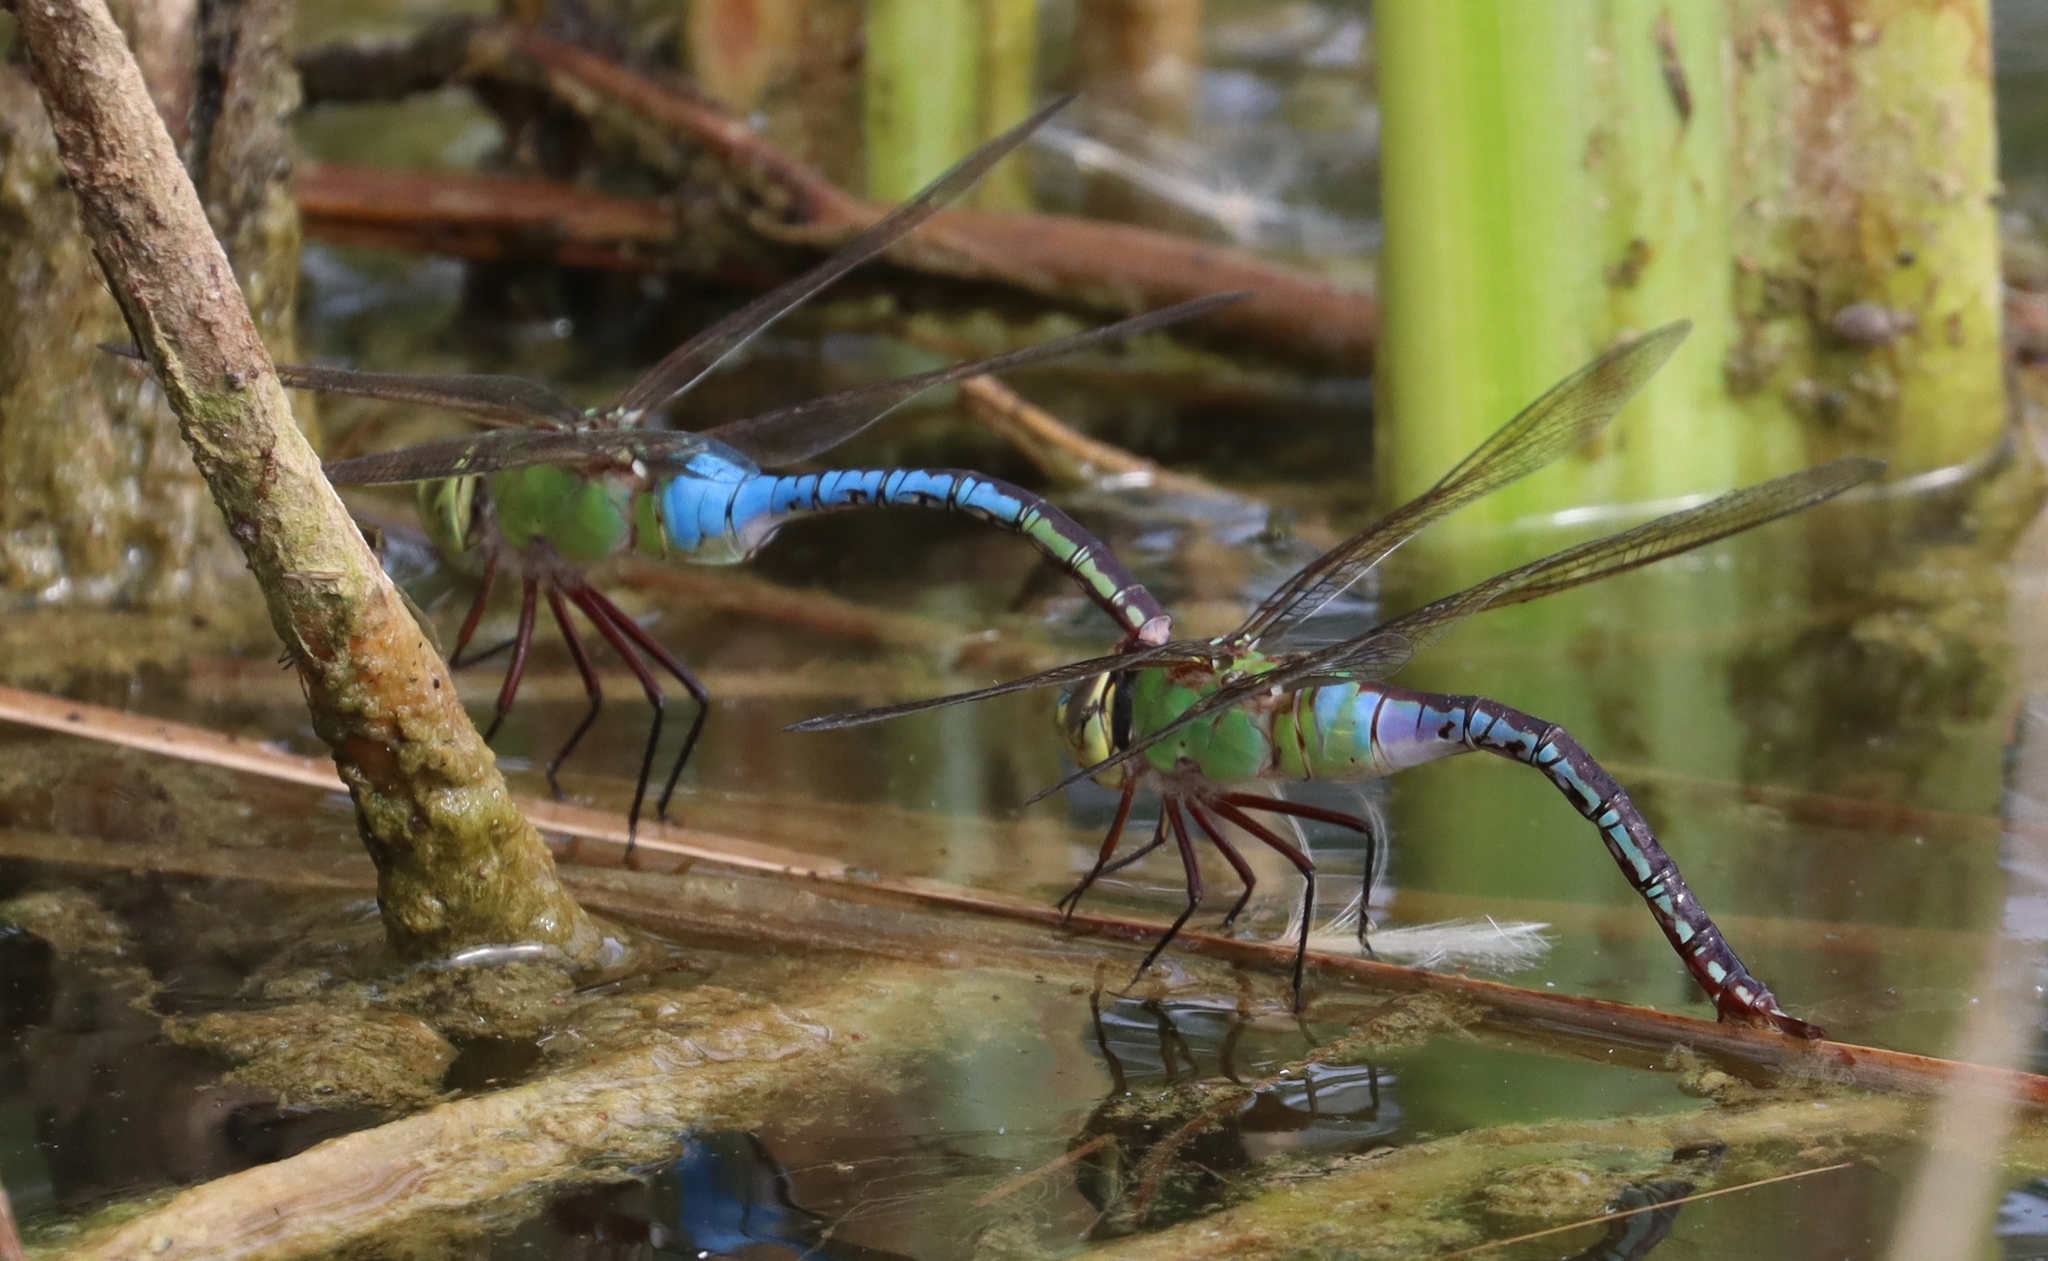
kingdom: Animalia
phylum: Arthropoda
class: Insecta
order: Odonata
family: Aeshnidae
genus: Anax
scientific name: Anax junius
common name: Common green darner
